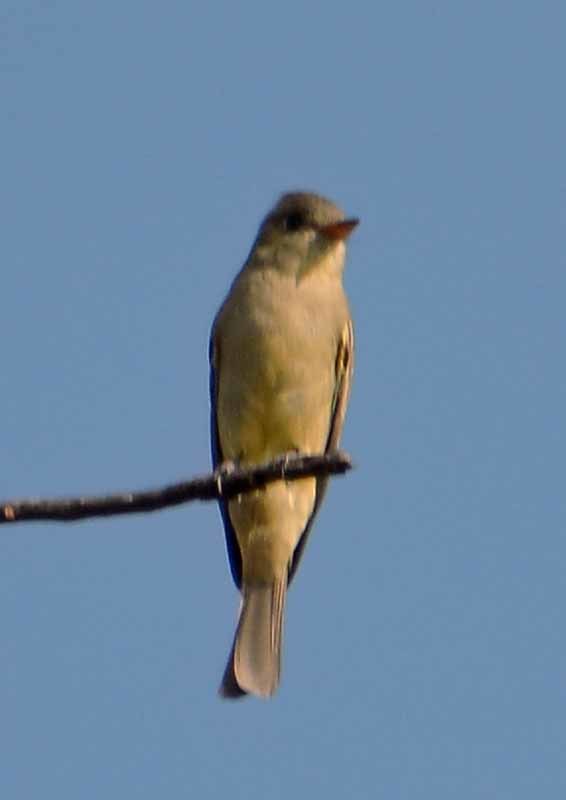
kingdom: Animalia
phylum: Chordata
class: Aves
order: Passeriformes
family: Tyrannidae
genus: Contopus
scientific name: Contopus sordidulus
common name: Western wood-pewee
